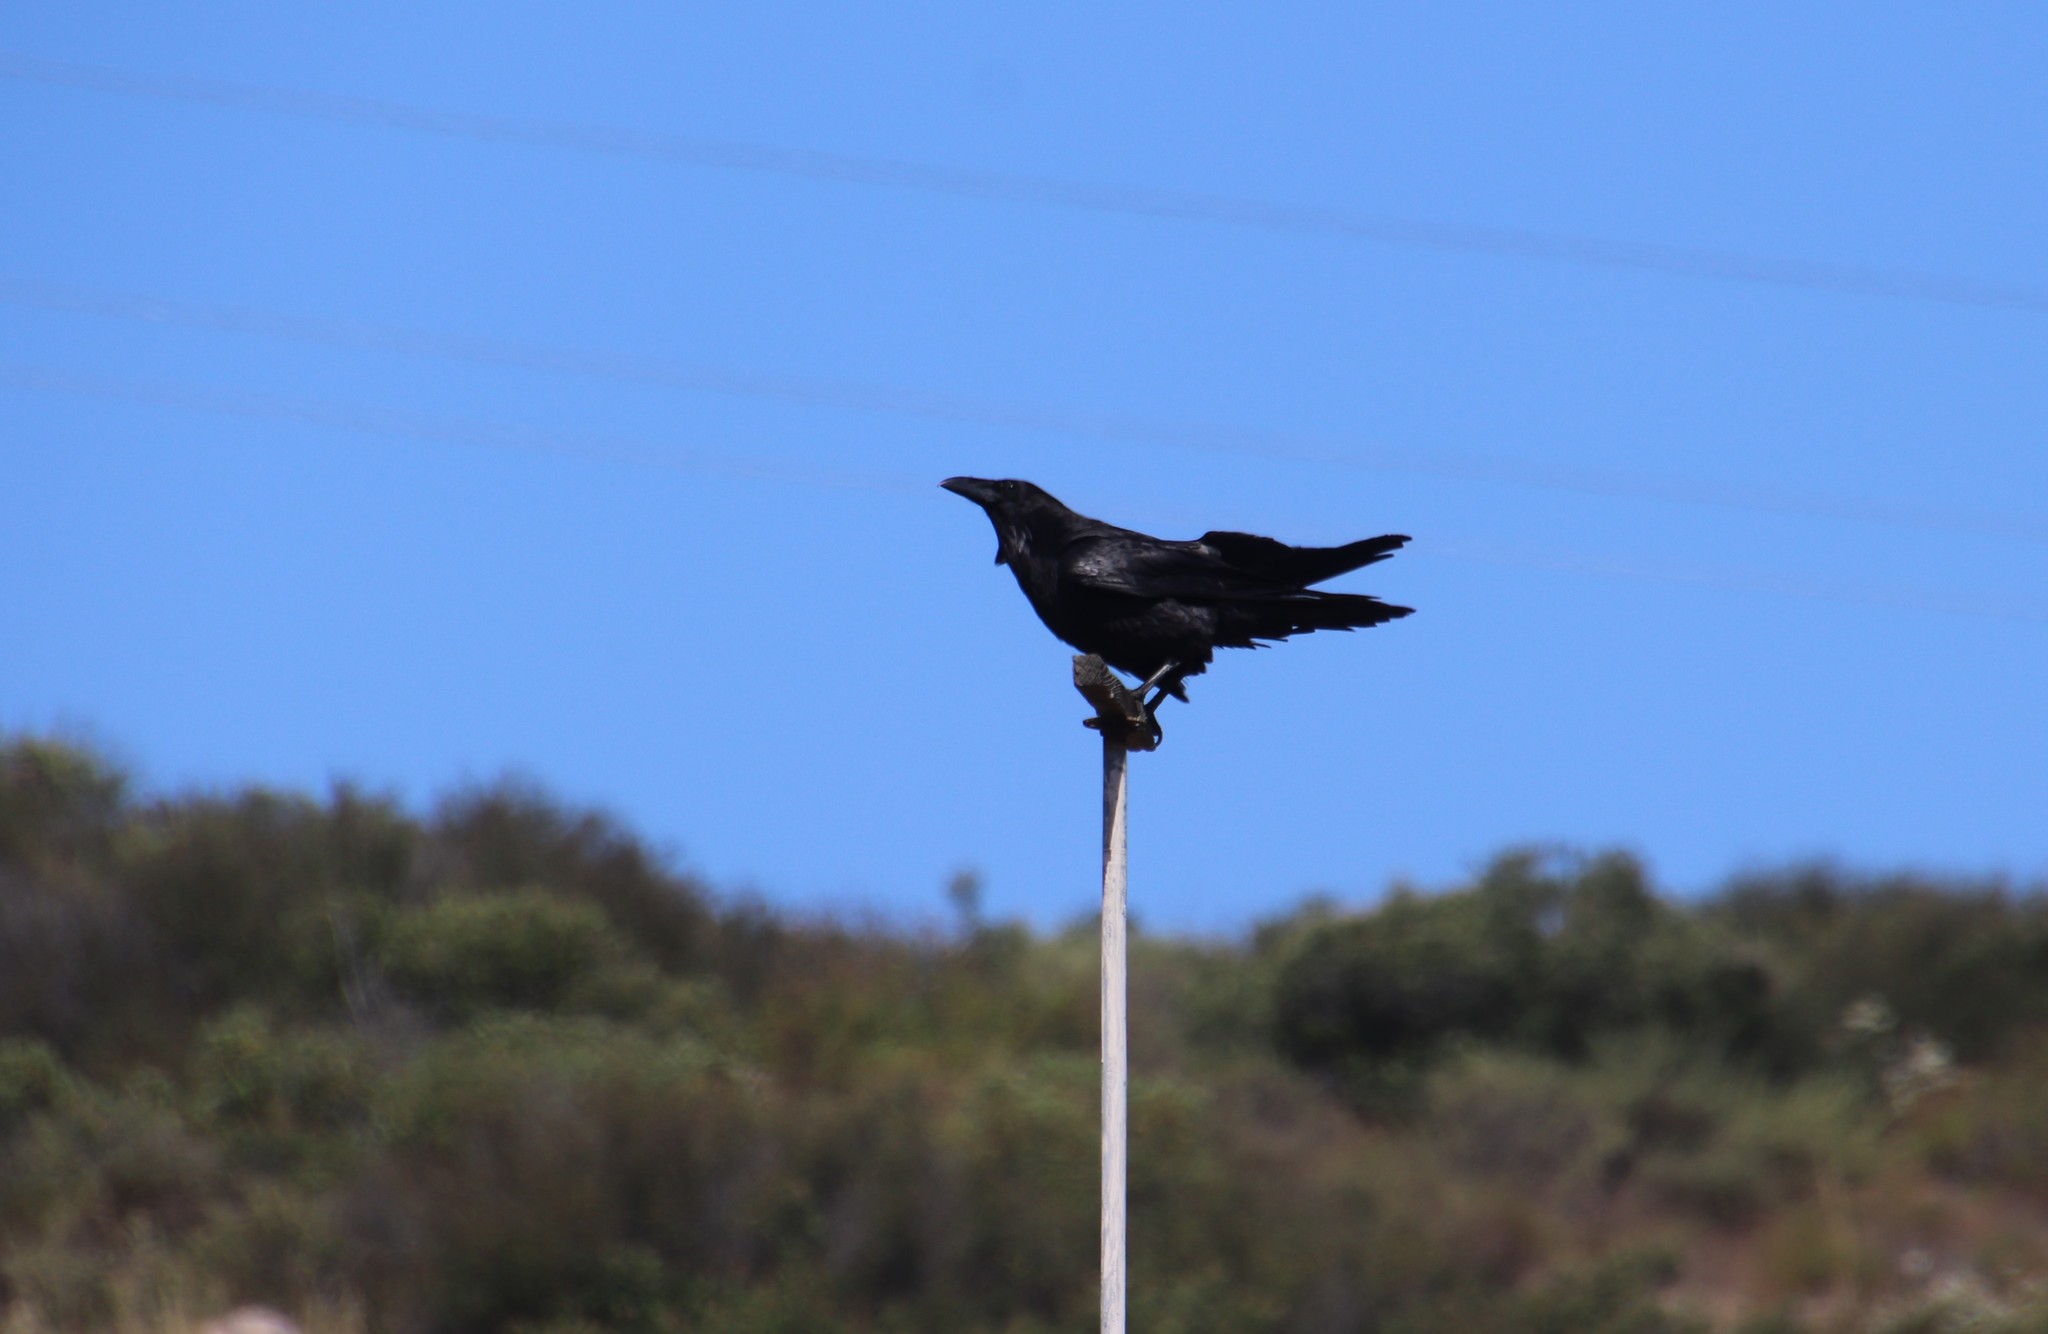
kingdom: Animalia
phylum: Chordata
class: Aves
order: Passeriformes
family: Corvidae
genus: Corvus
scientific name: Corvus corax
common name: Common raven
